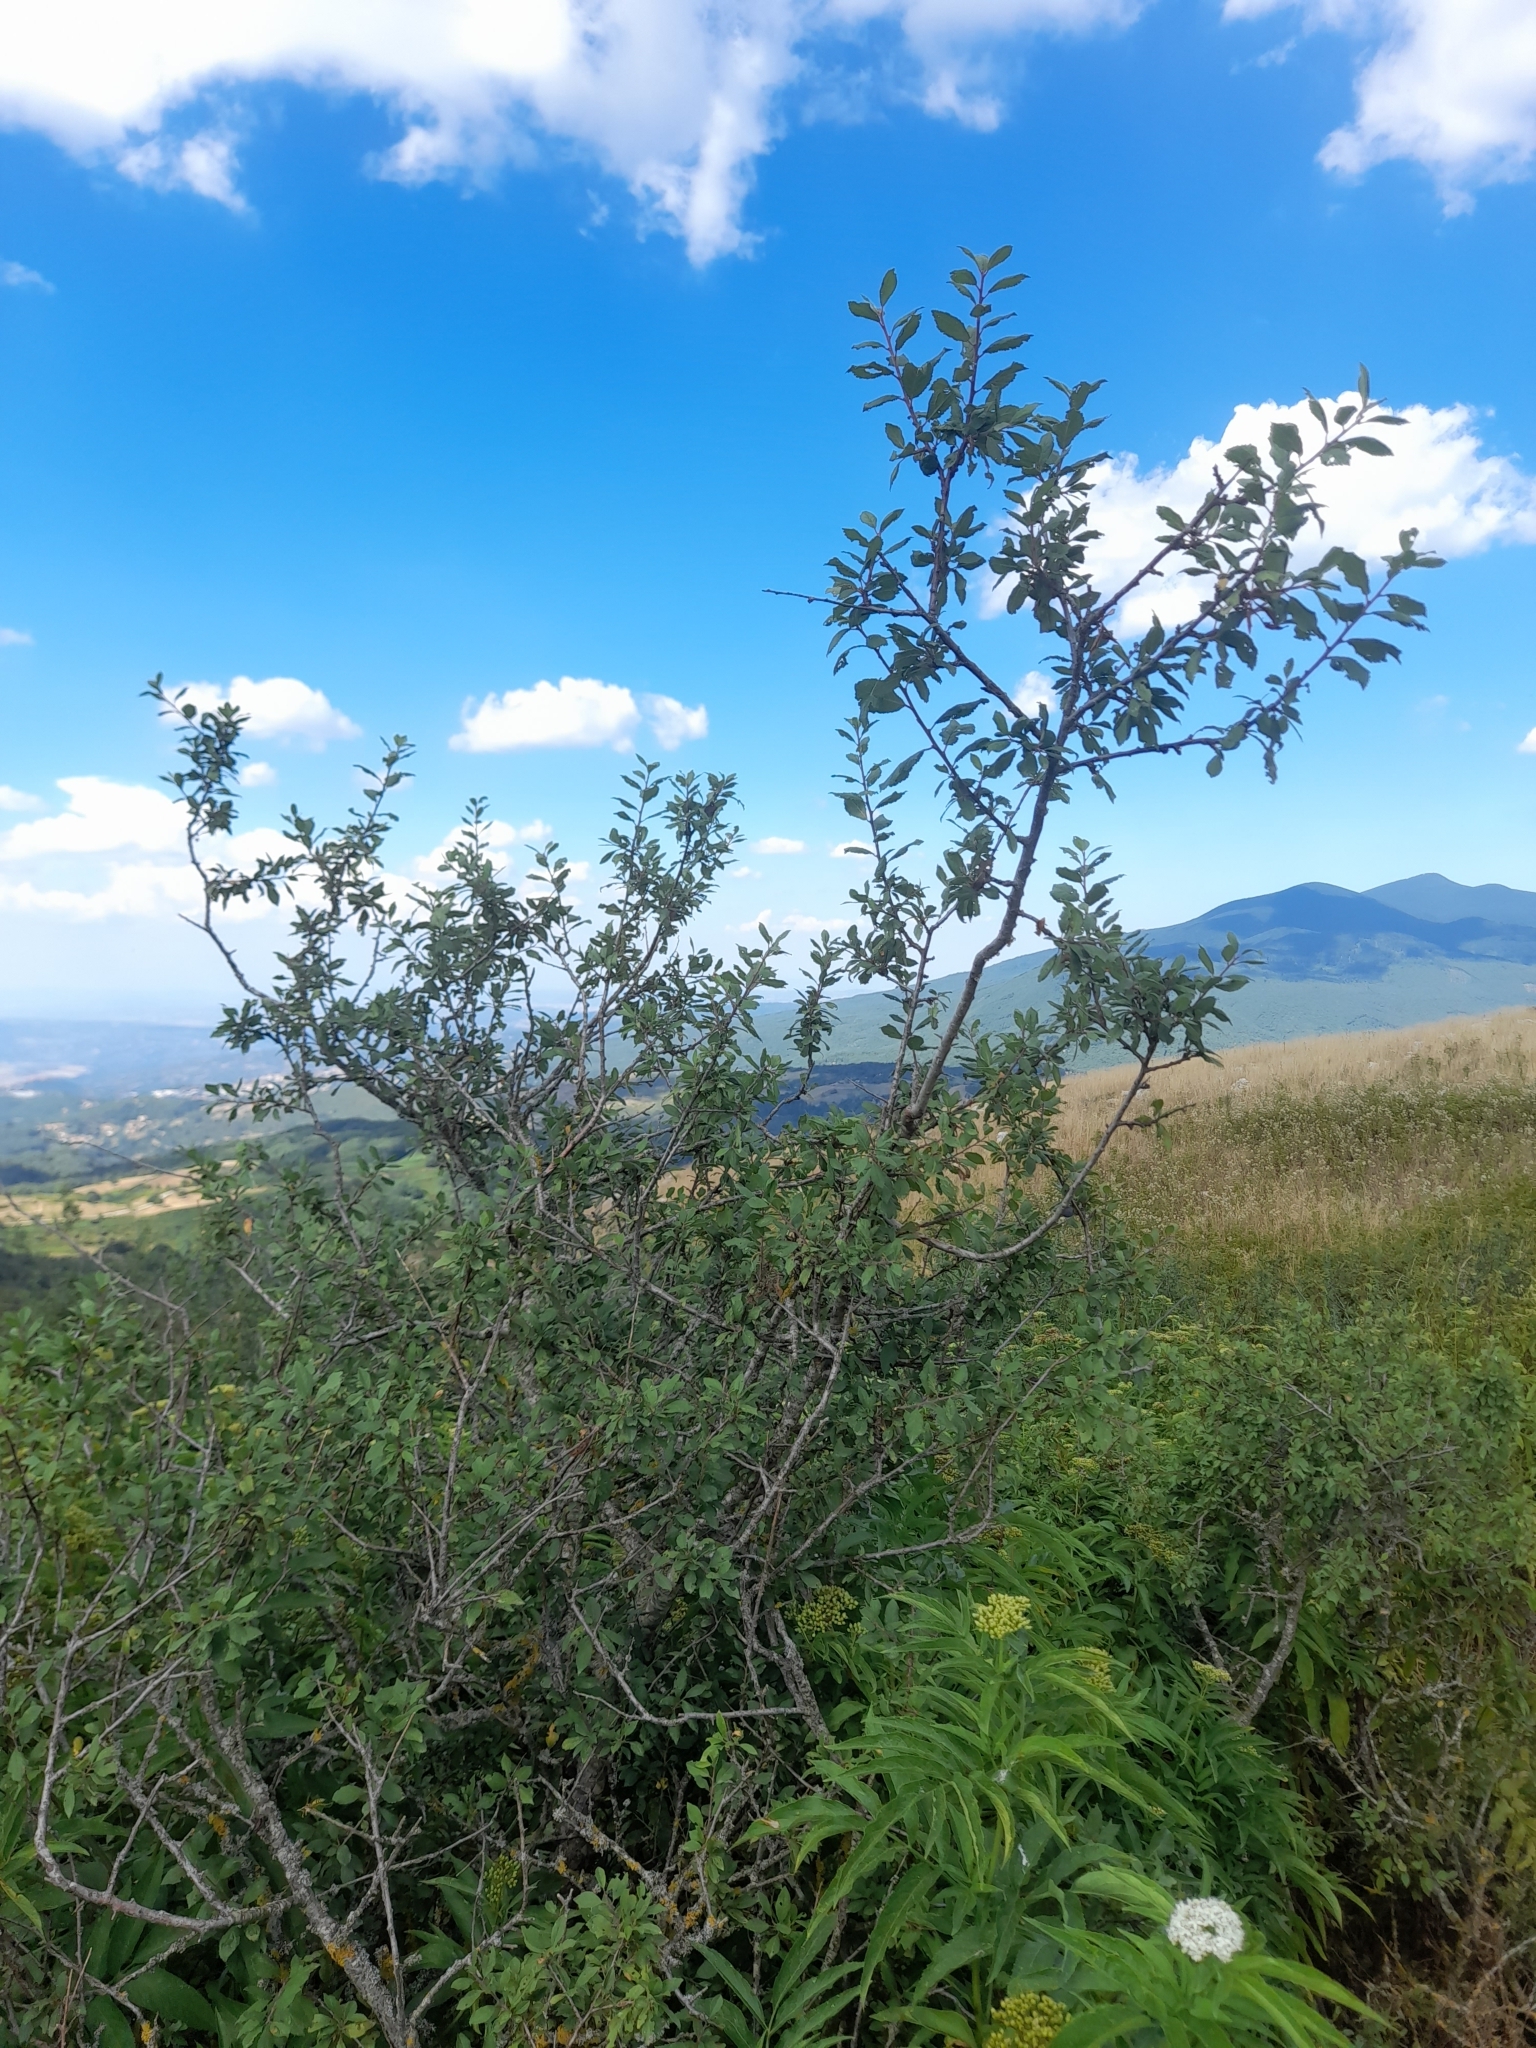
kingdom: Plantae
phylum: Tracheophyta
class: Magnoliopsida
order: Rosales
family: Rosaceae
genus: Prunus
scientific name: Prunus spinosa
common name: Blackthorn
